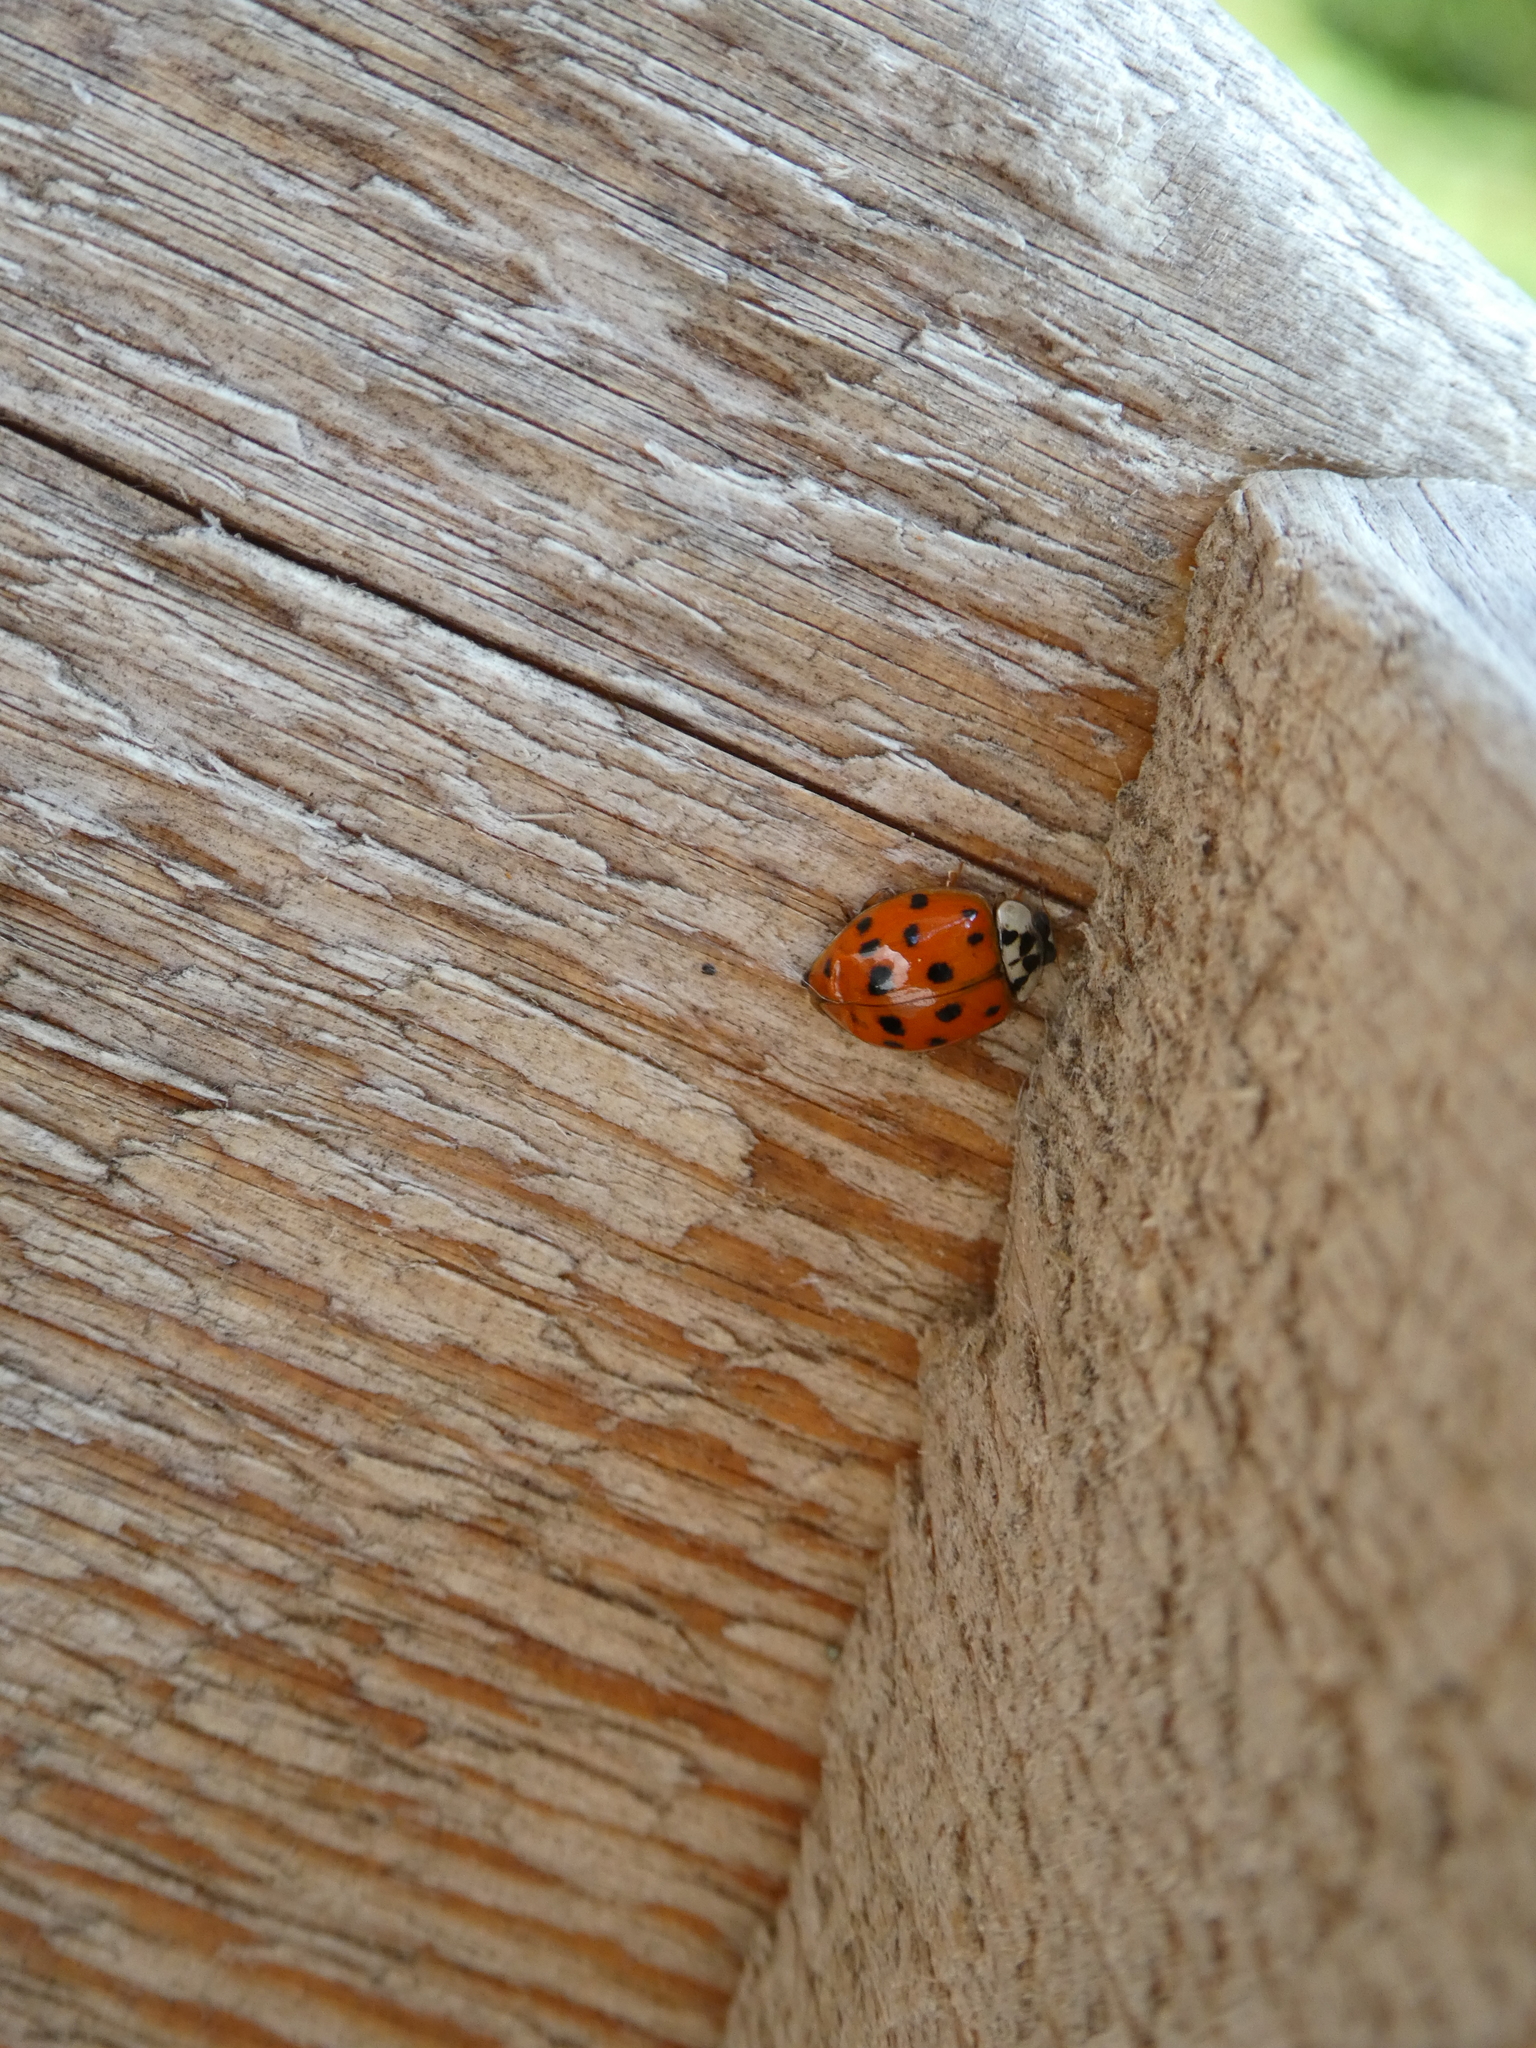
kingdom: Animalia
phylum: Arthropoda
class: Insecta
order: Coleoptera
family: Coccinellidae
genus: Harmonia
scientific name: Harmonia axyridis
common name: Harlequin ladybird
